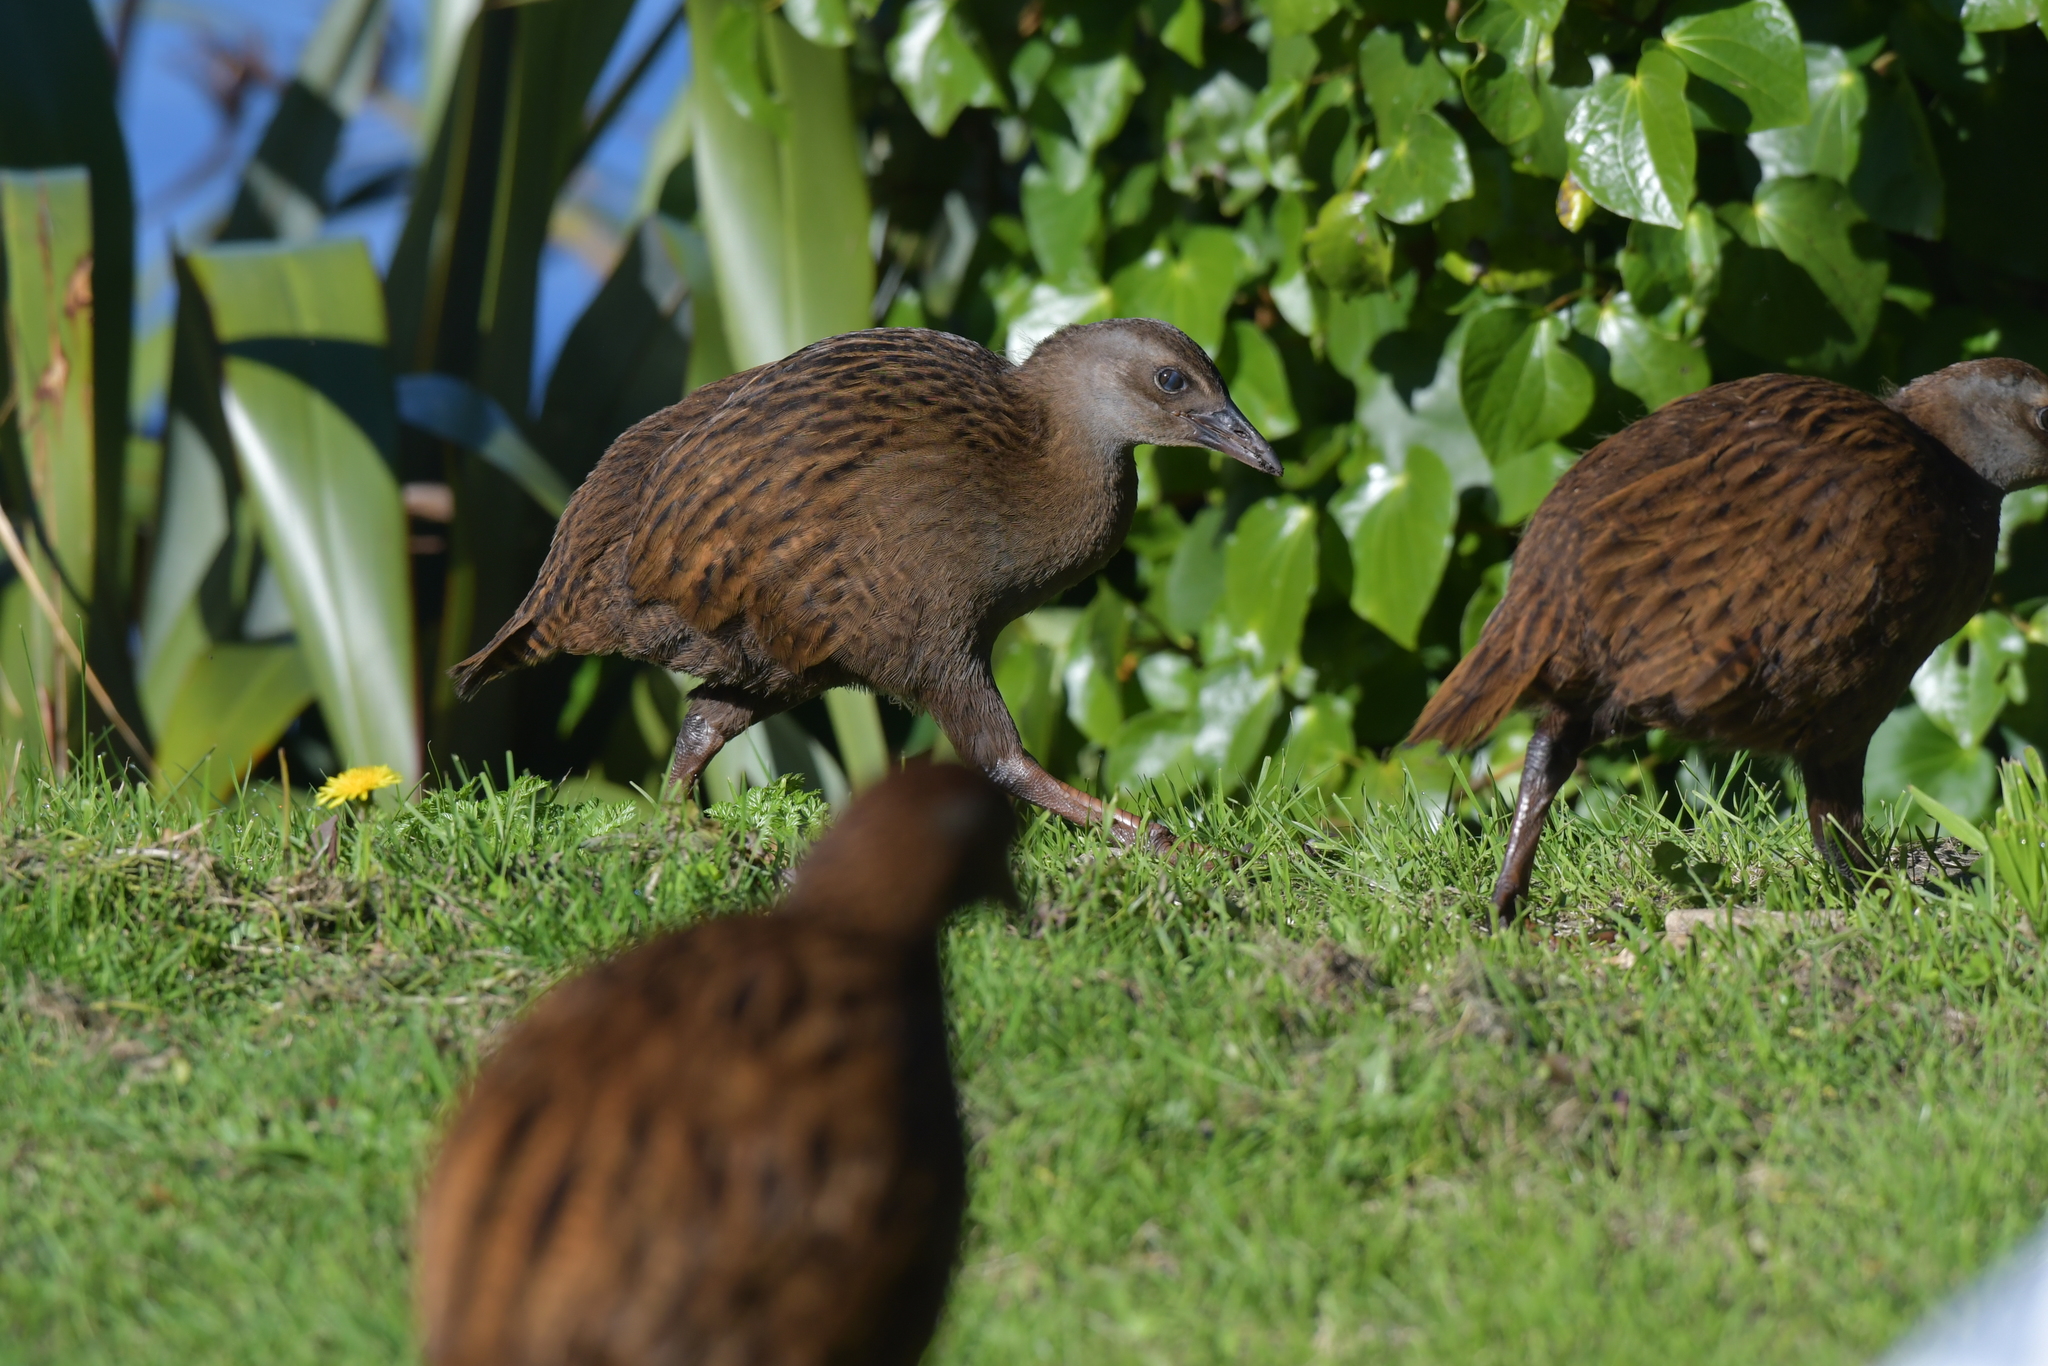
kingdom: Animalia
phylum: Chordata
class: Aves
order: Gruiformes
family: Rallidae
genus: Gallirallus
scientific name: Gallirallus
